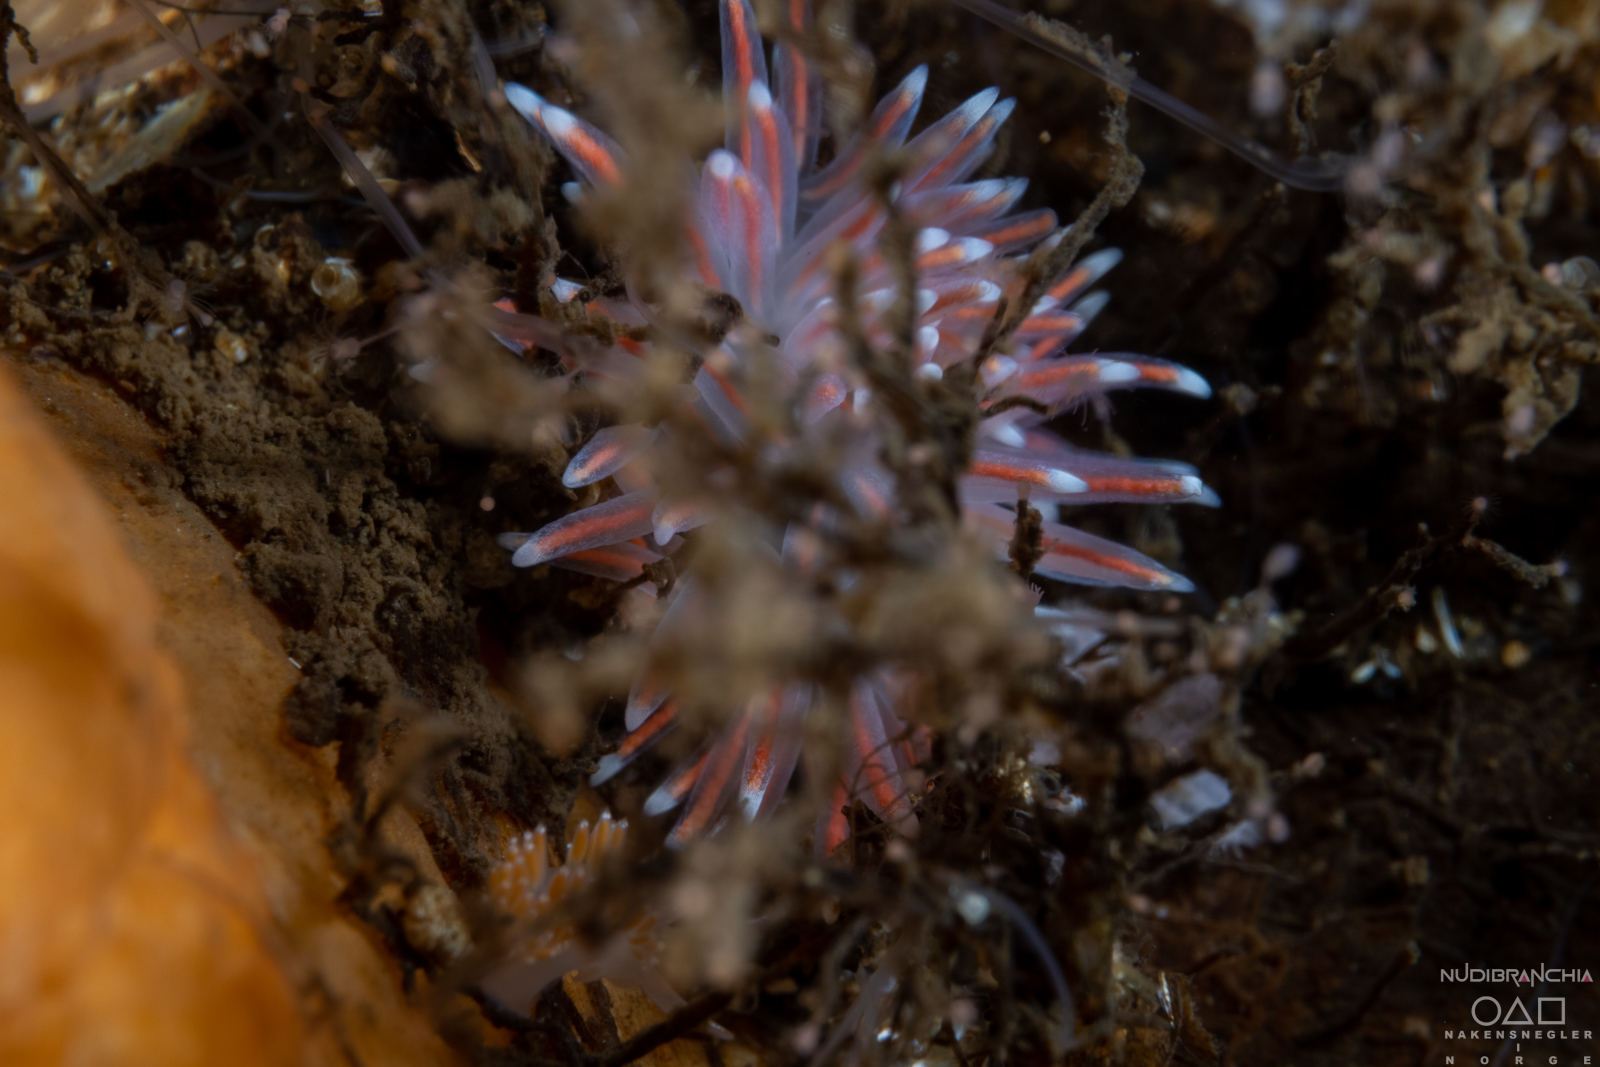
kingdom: Animalia
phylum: Mollusca
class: Gastropoda
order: Nudibranchia
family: Flabellinidae
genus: Carronella
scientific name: Carronella pellucida
